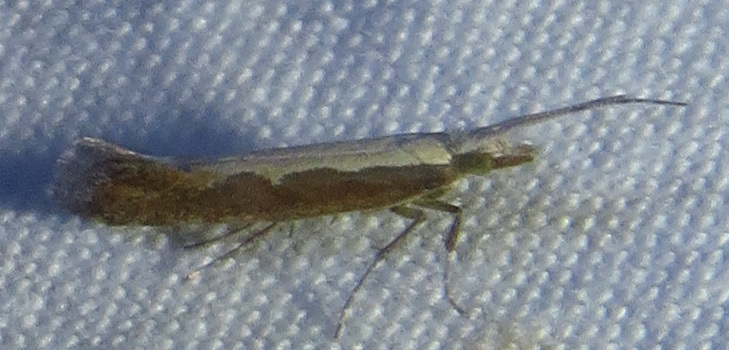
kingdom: Animalia
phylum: Arthropoda
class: Insecta
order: Lepidoptera
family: Plutellidae
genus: Plutella
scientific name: Plutella xylostella
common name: Diamond-back moth
